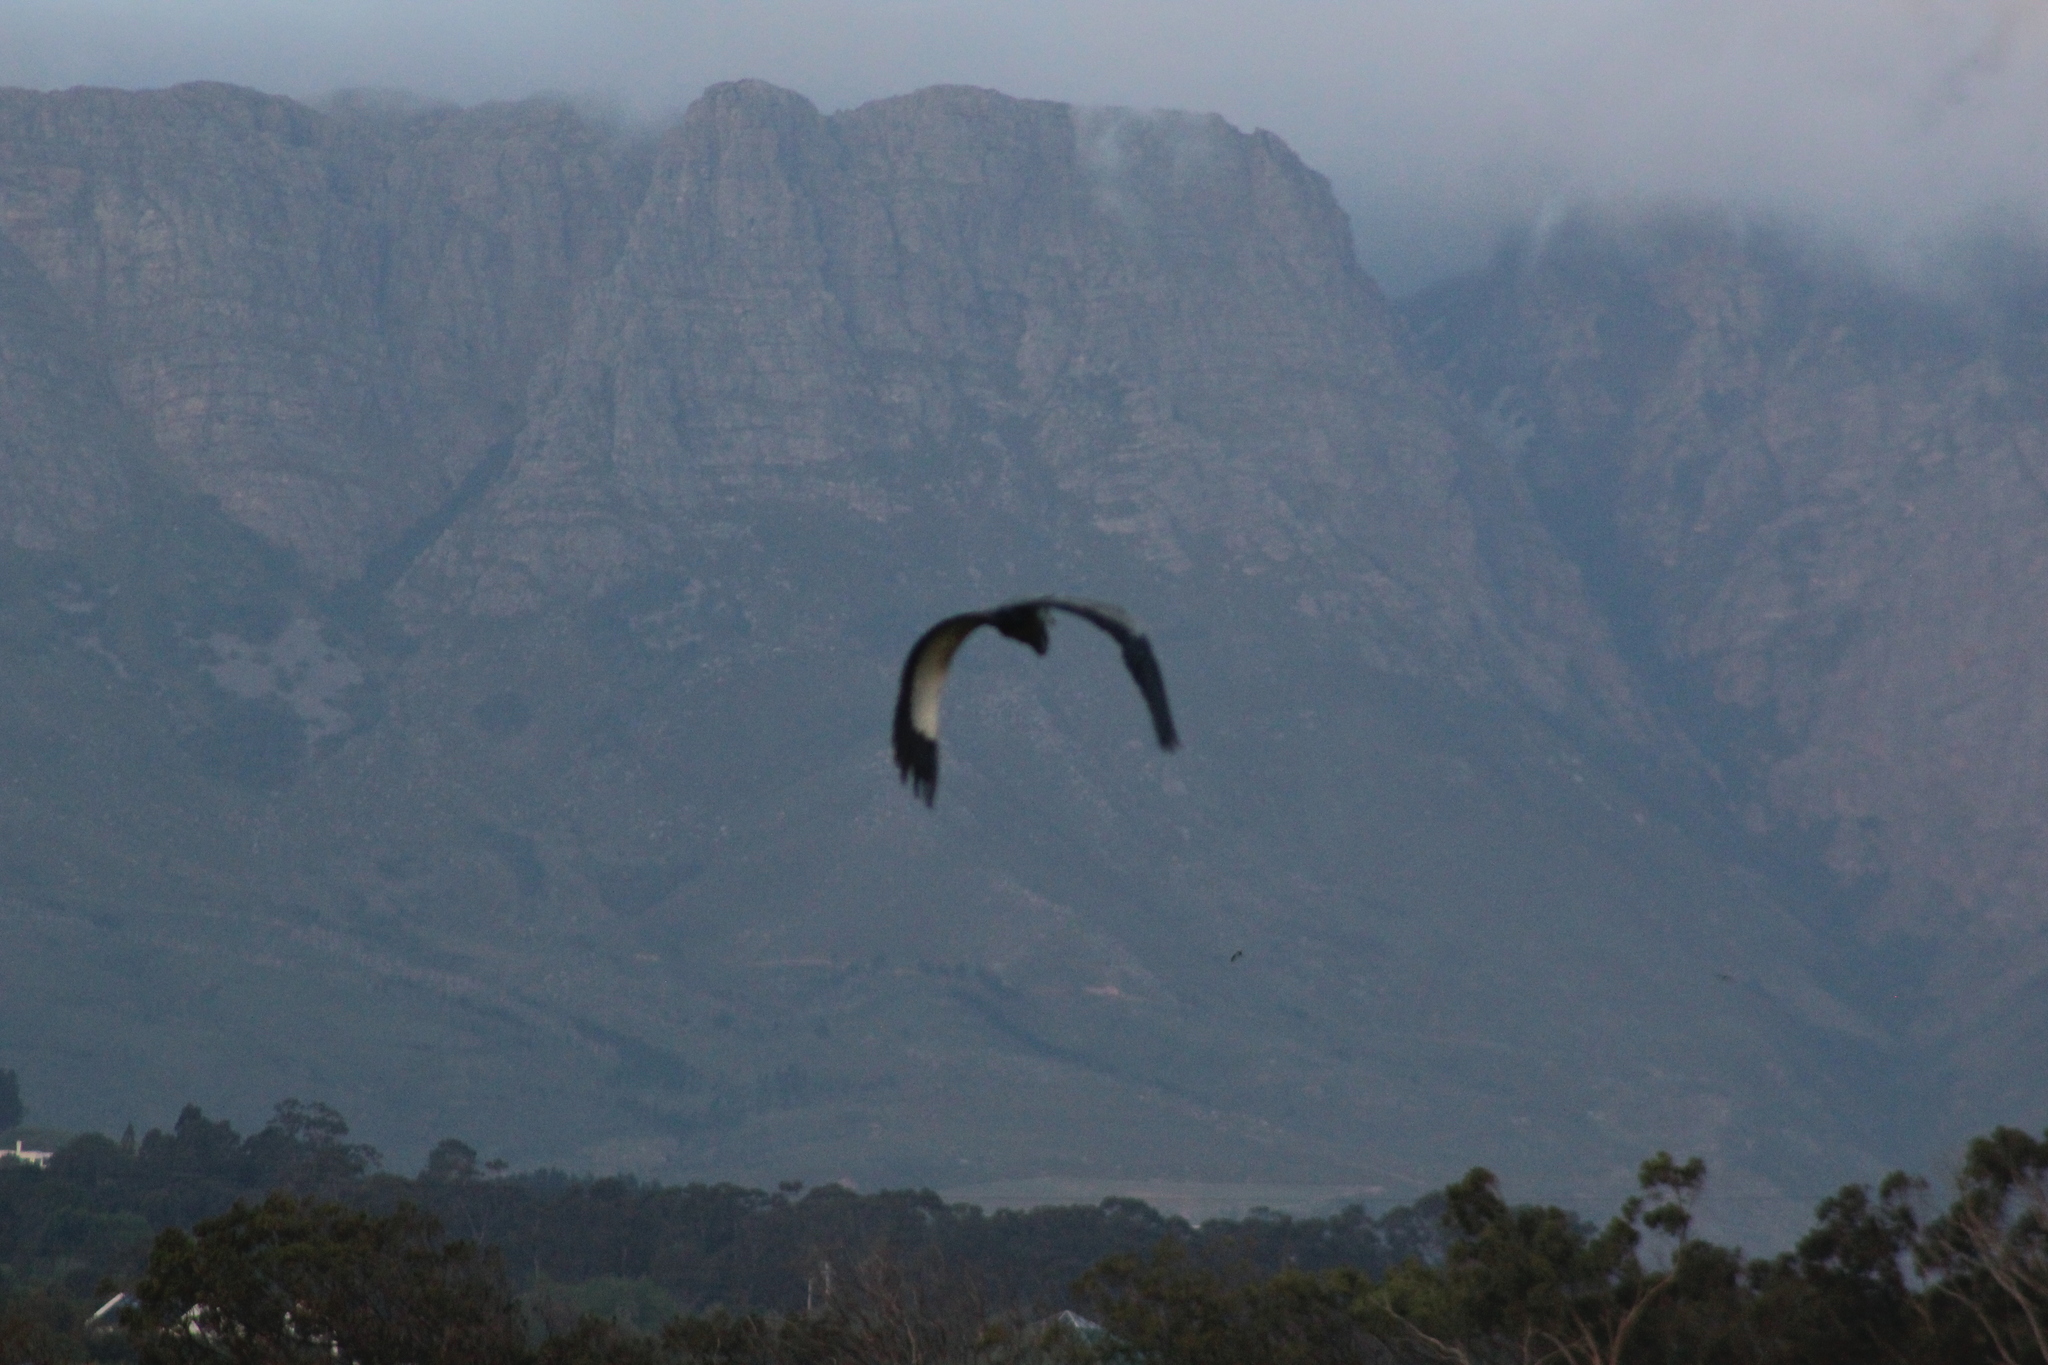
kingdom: Animalia
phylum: Chordata
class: Aves
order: Pelecaniformes
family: Ardeidae
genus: Ardea
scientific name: Ardea melanocephala
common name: Black-headed heron
